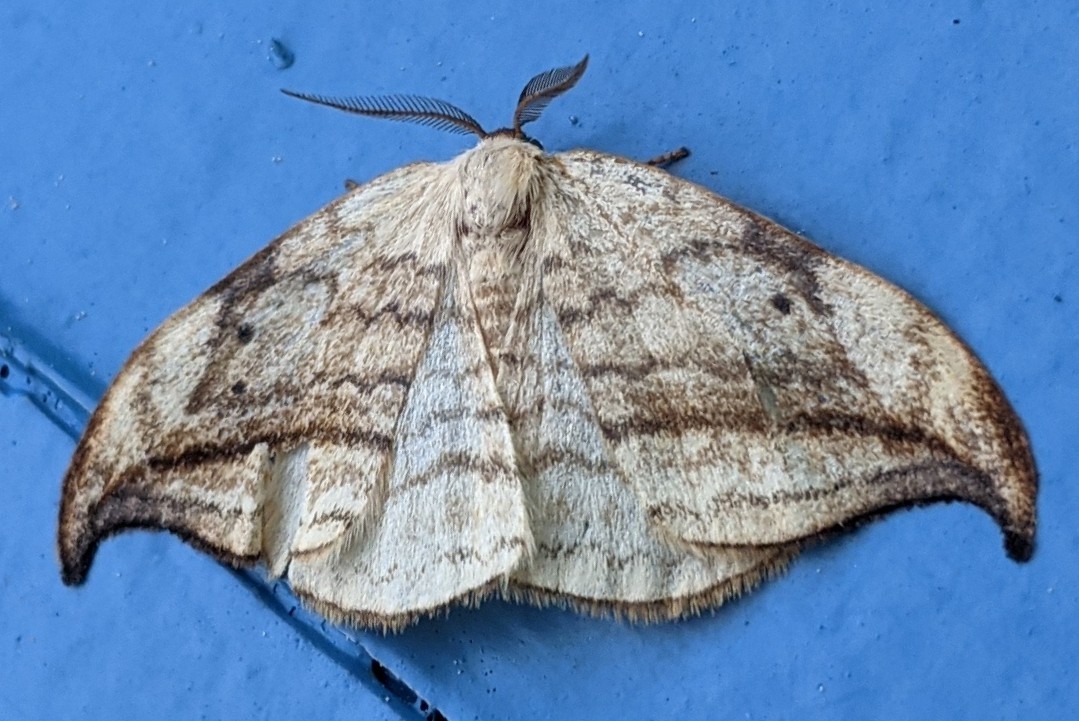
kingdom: Animalia
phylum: Arthropoda
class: Insecta
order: Lepidoptera
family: Drepanidae
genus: Drepana
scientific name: Drepana arcuata
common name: Arched hooktip moth
